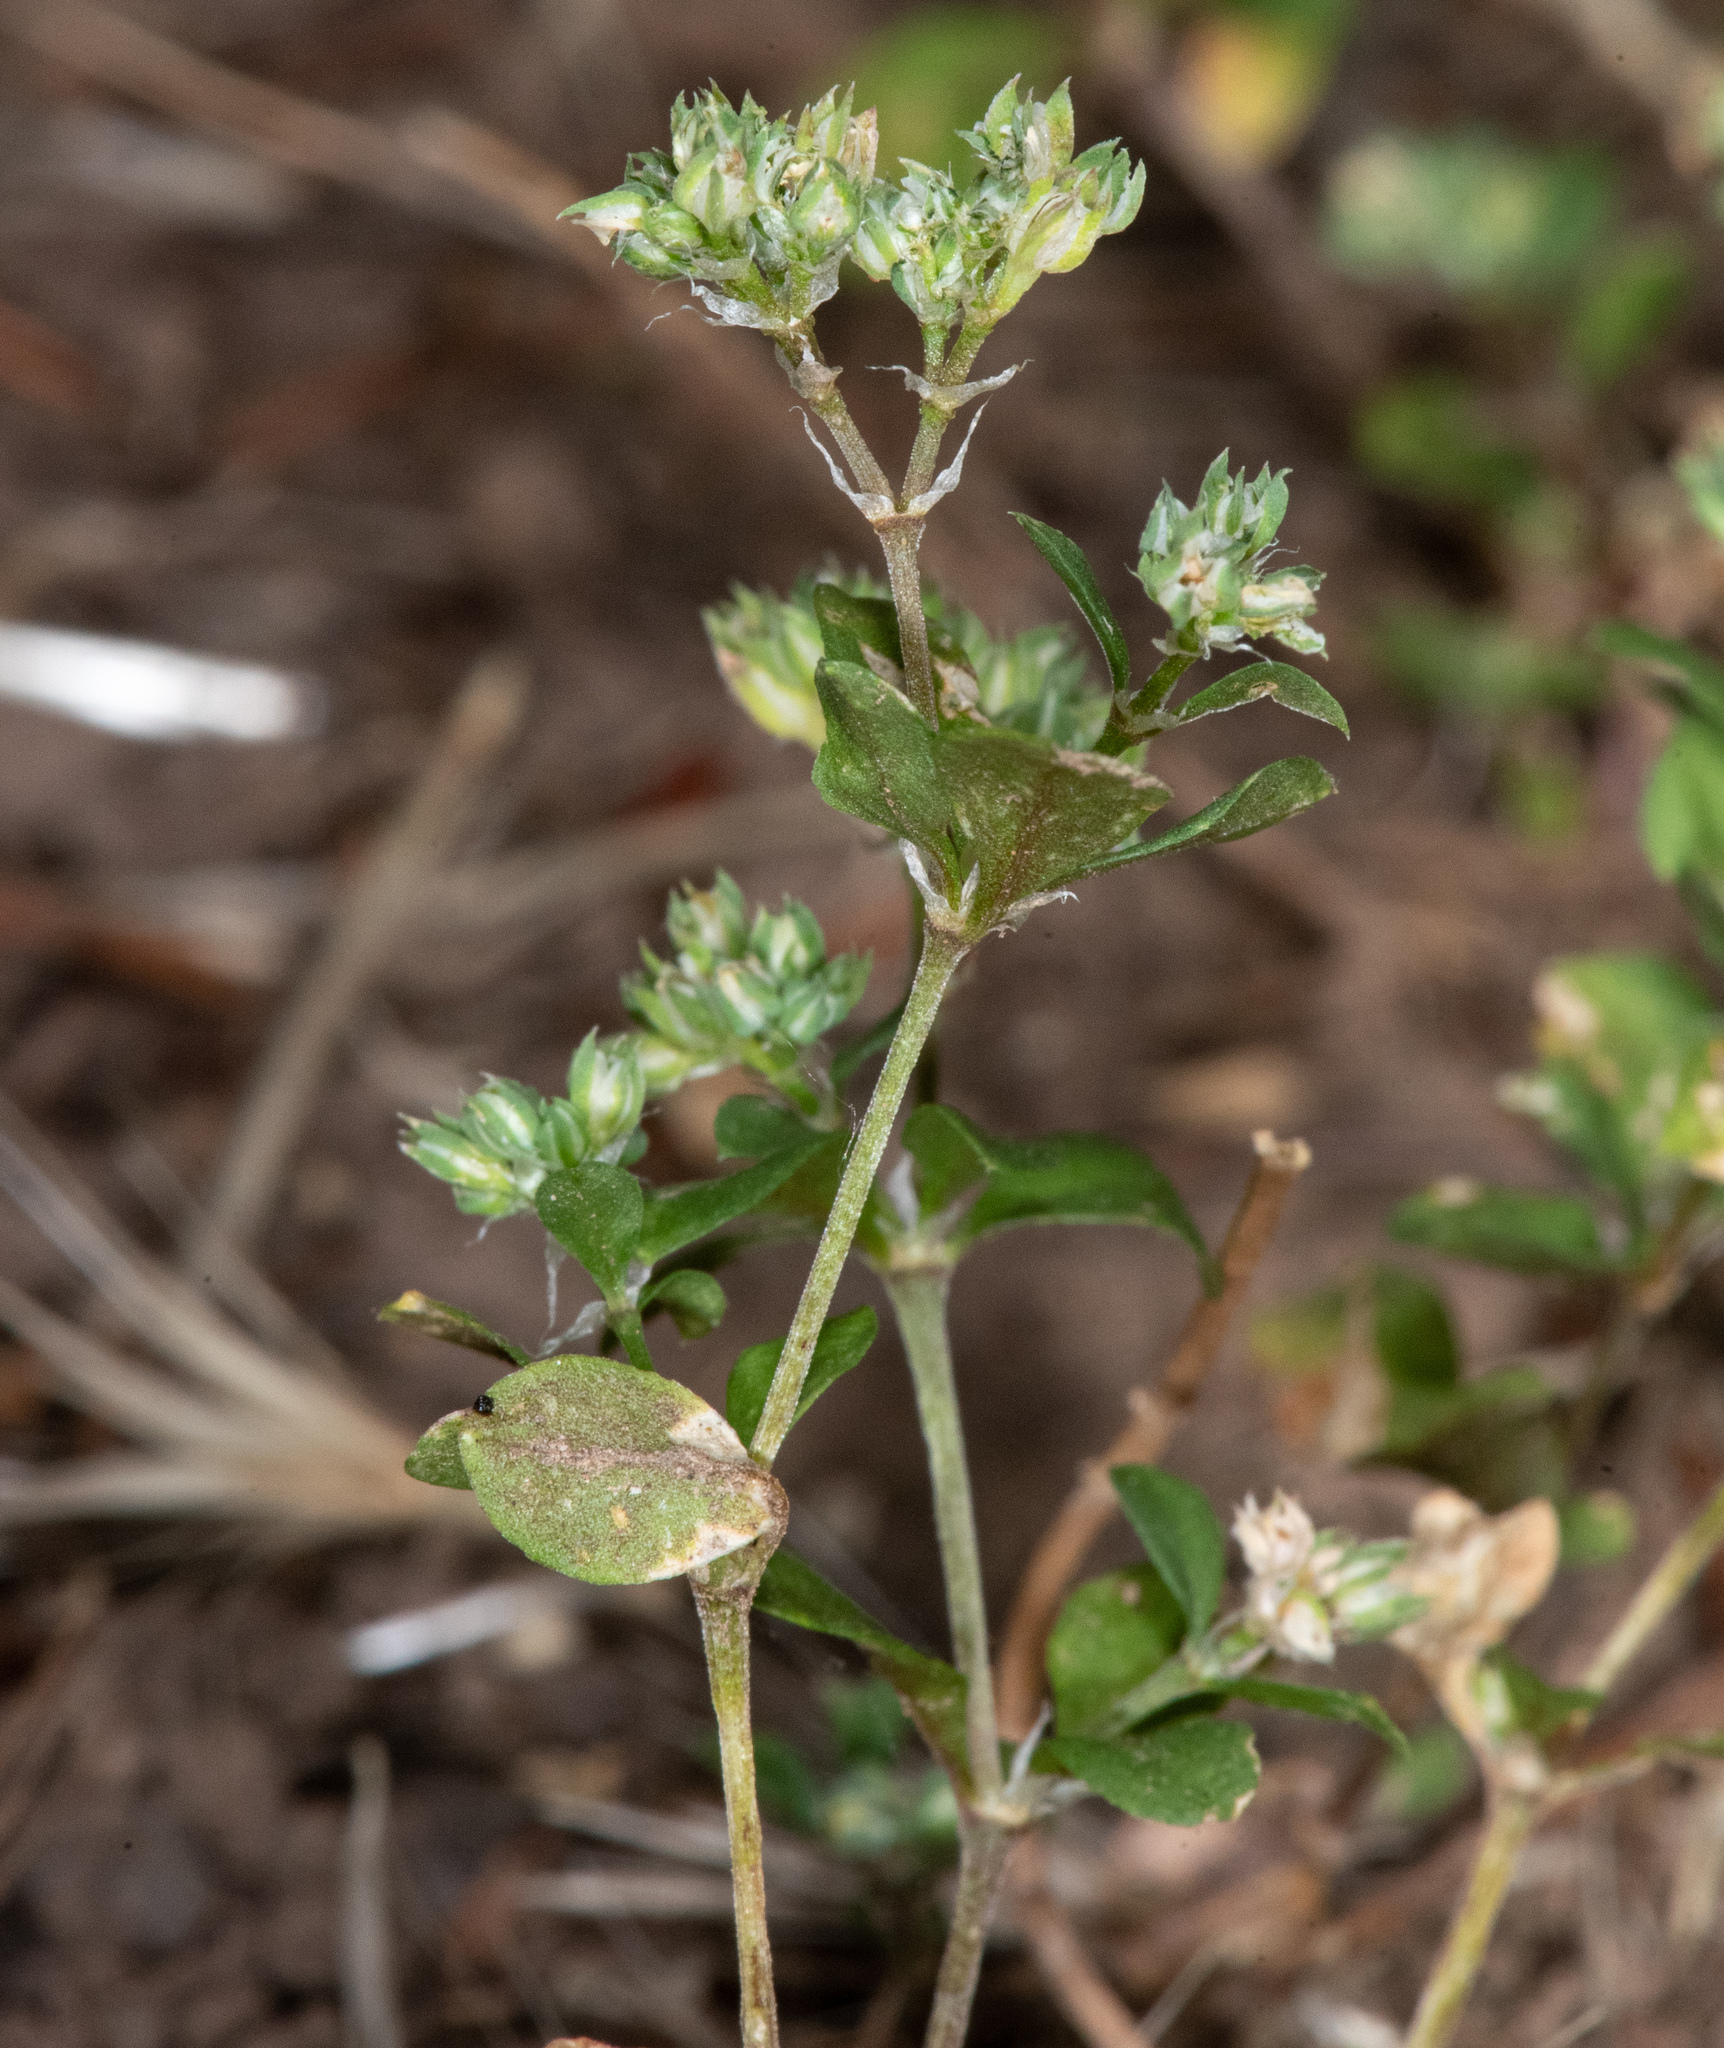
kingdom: Plantae
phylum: Tracheophyta
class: Magnoliopsida
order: Caryophyllales
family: Caryophyllaceae
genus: Polycarpon
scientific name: Polycarpon tetraphyllum
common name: Four-leaved all-seed
